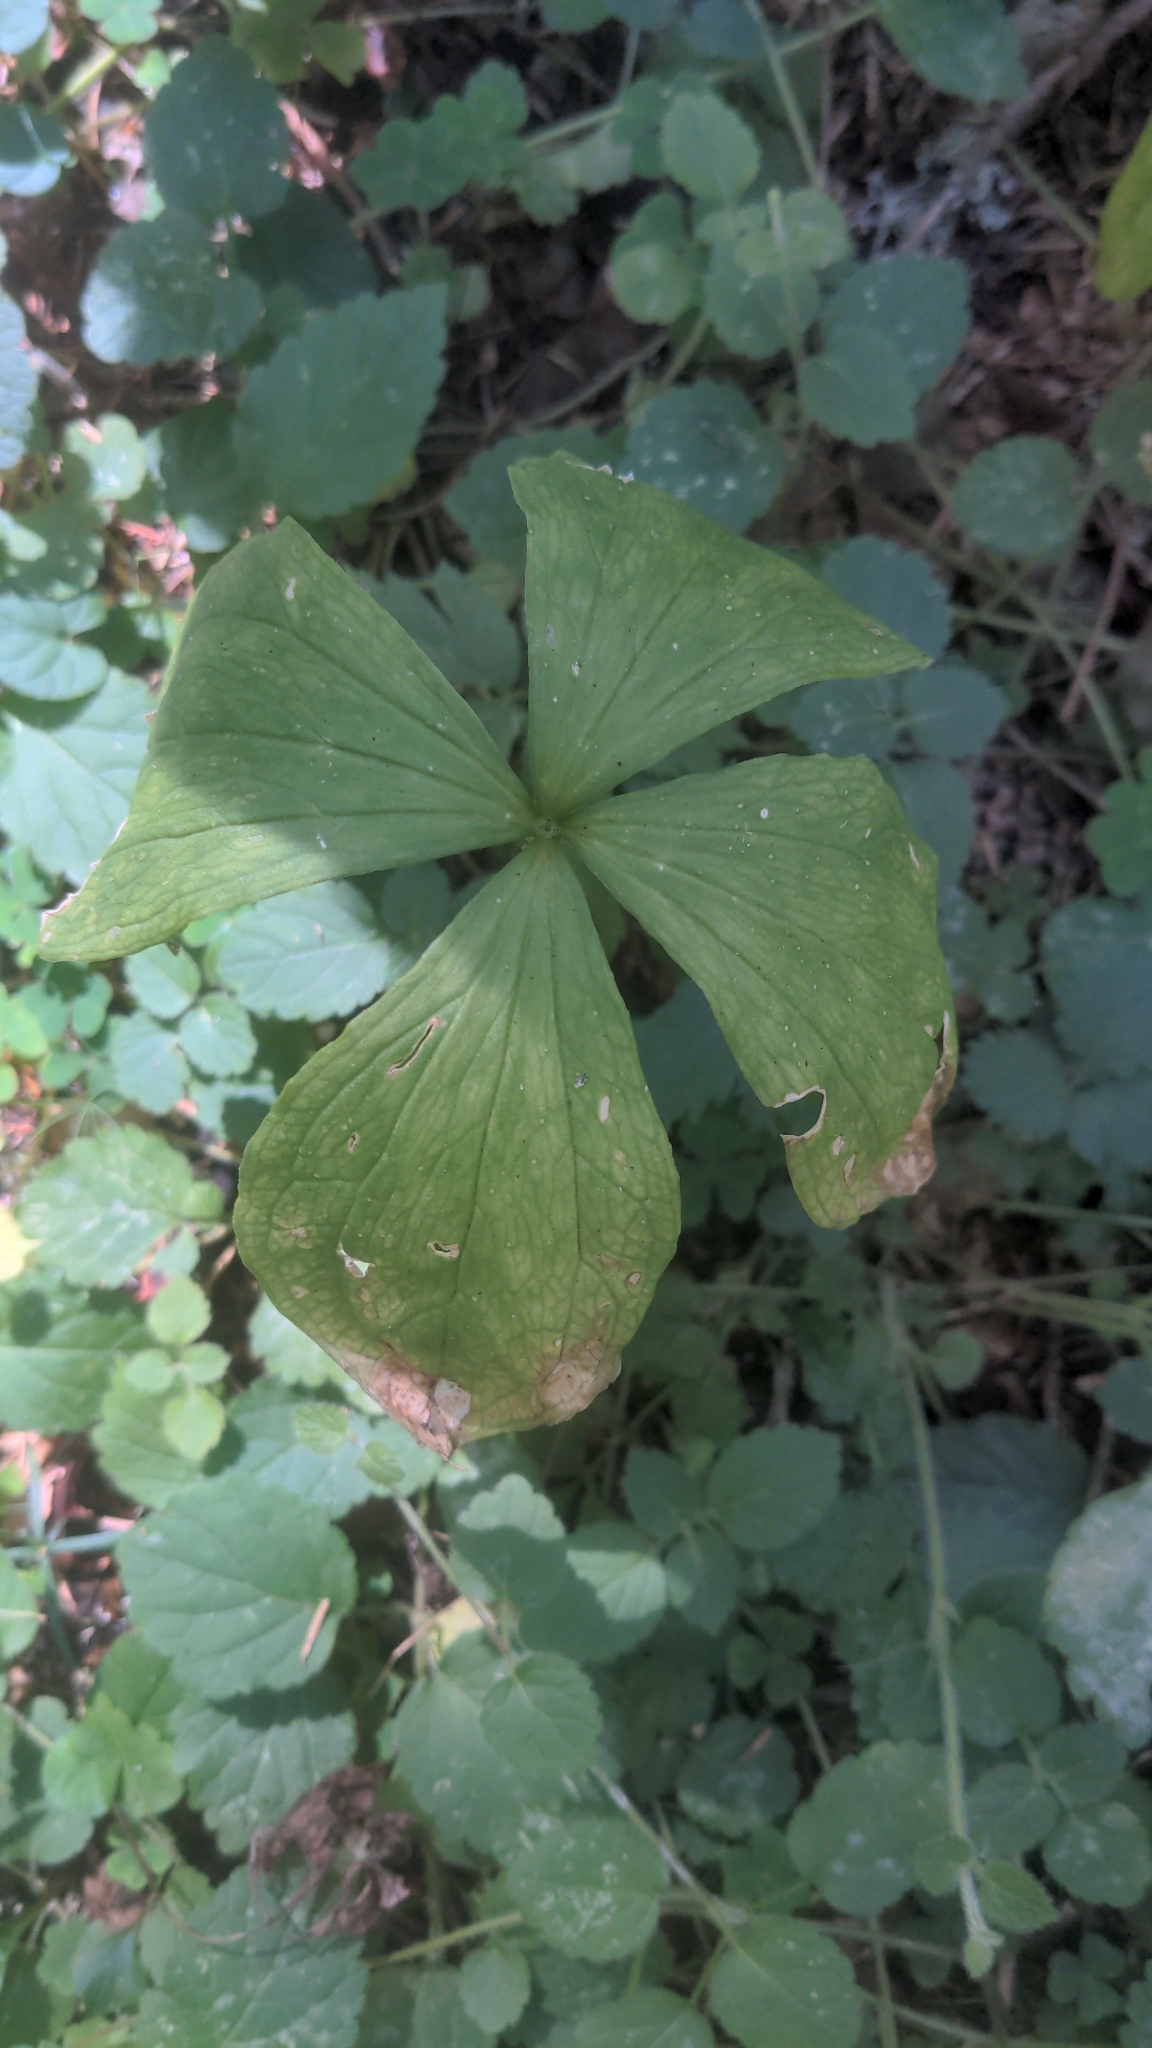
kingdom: Plantae
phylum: Tracheophyta
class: Liliopsida
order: Liliales
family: Melanthiaceae
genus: Paris
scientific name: Paris quadrifolia
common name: Herb-paris
